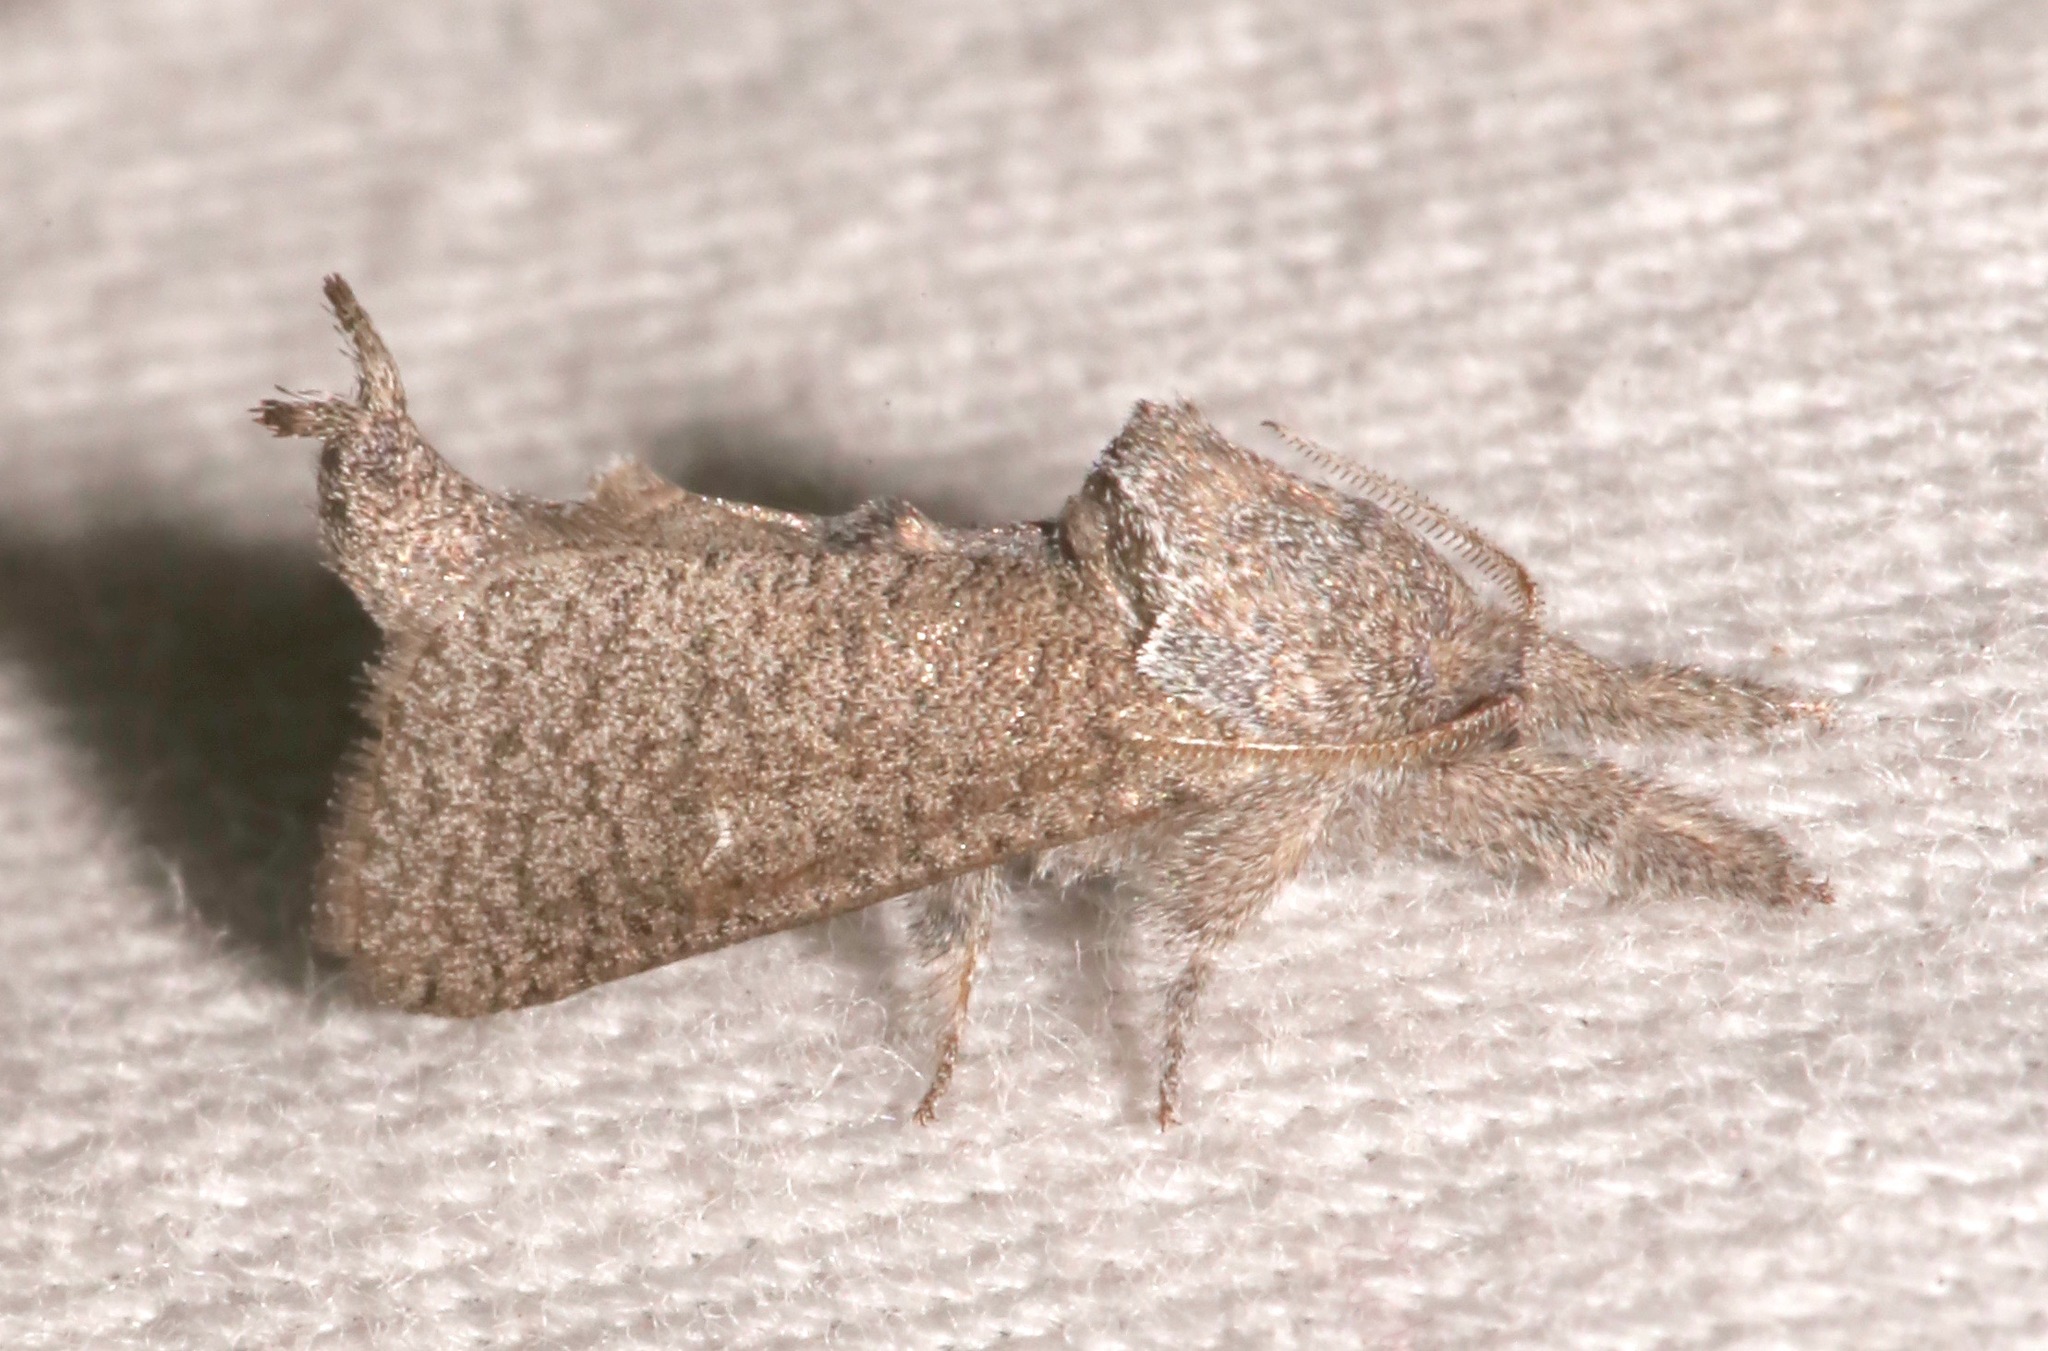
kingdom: Animalia
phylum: Arthropoda
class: Insecta
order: Lepidoptera
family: Cossidae
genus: Givira
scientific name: Givira lotta
